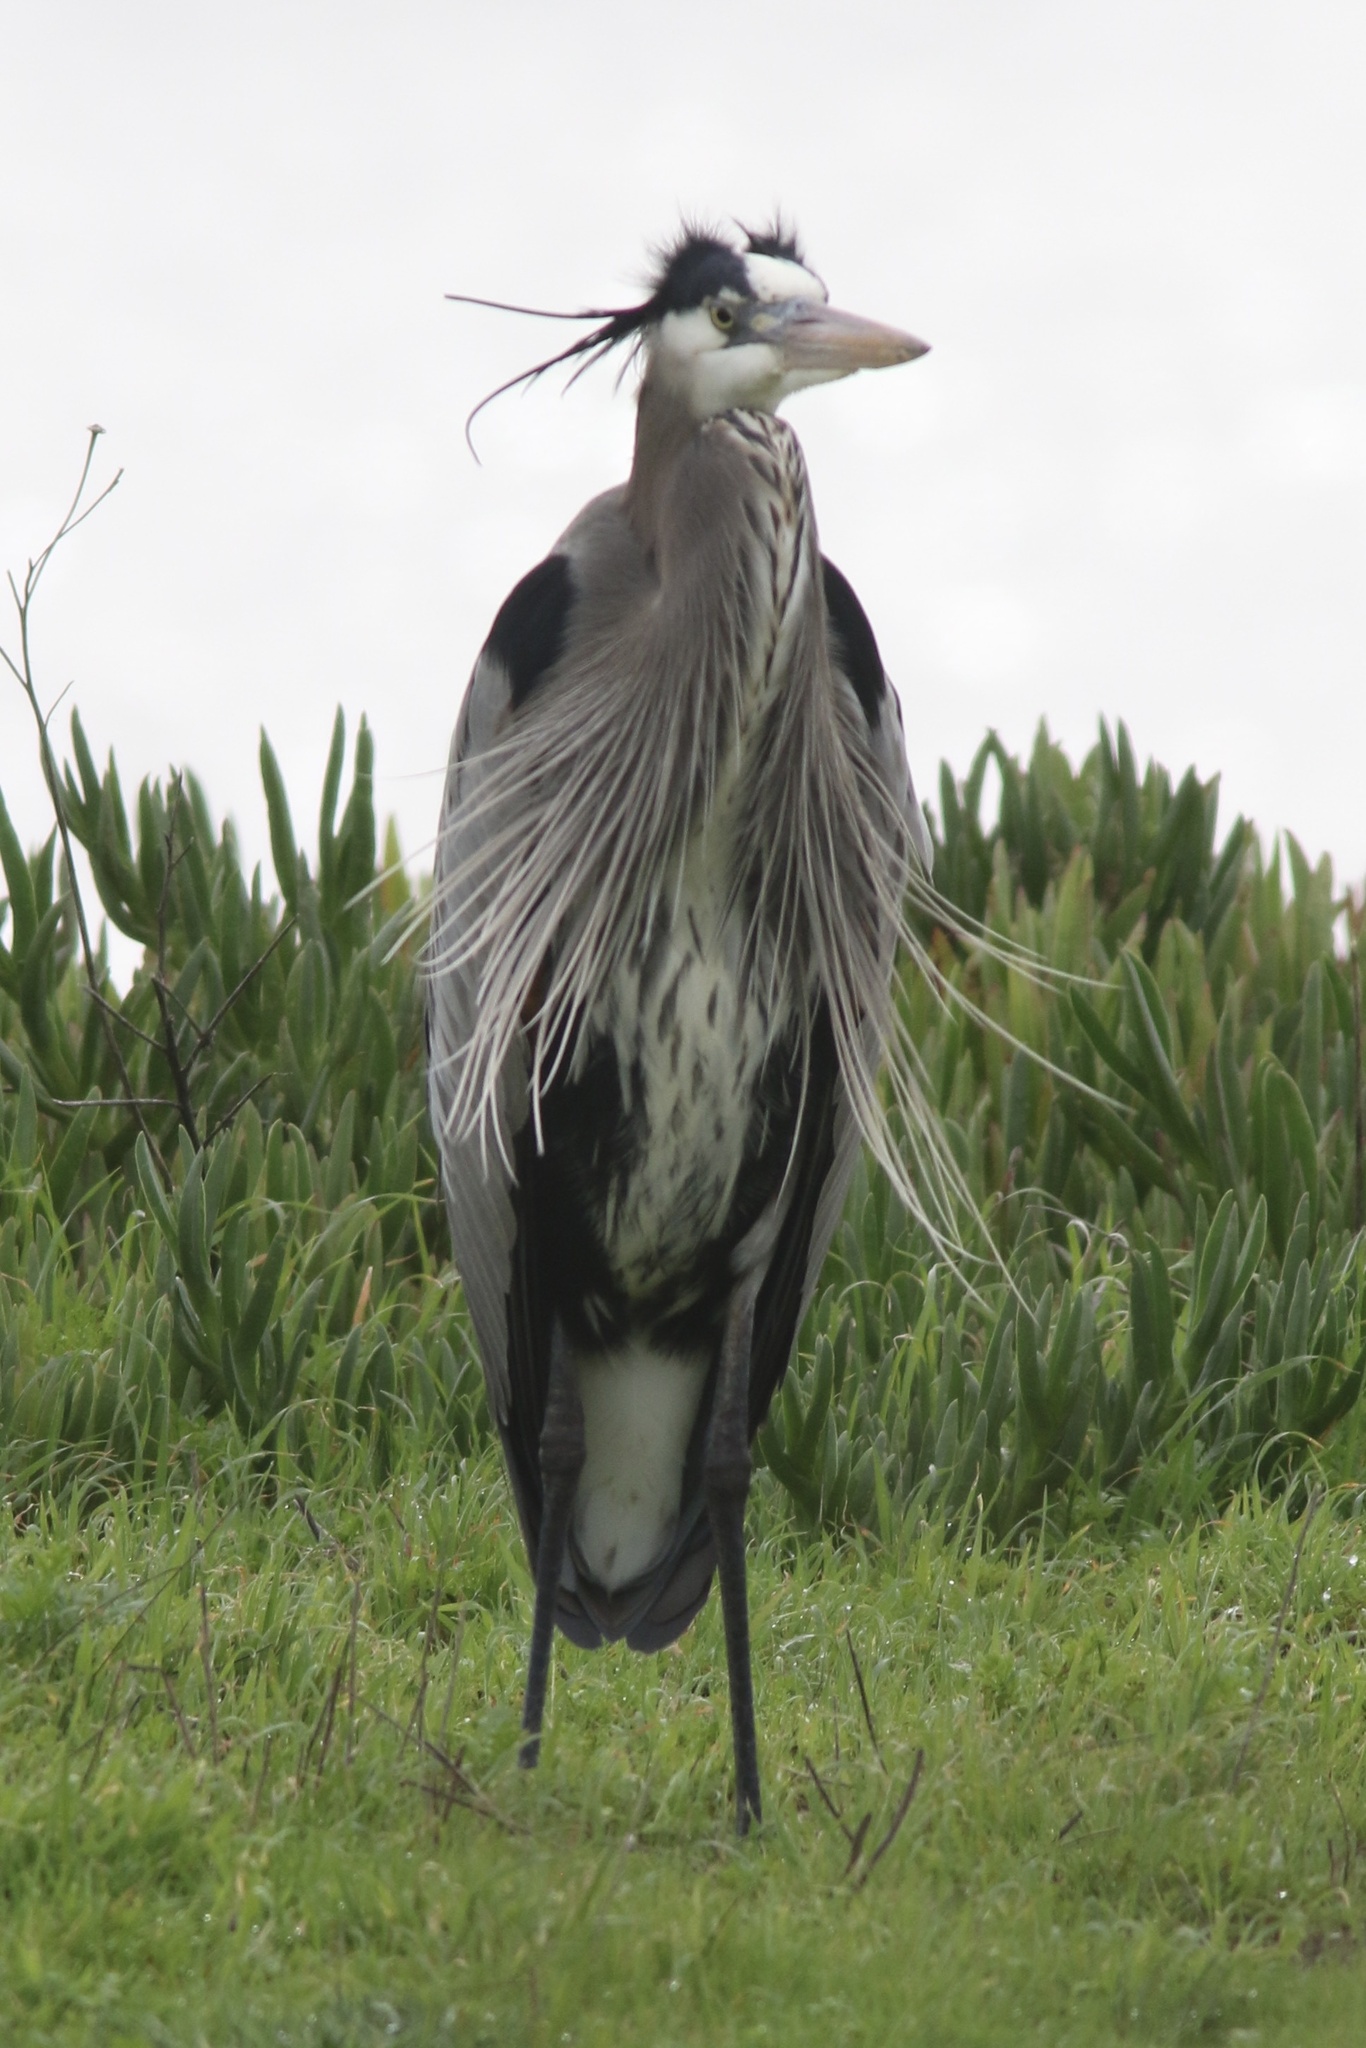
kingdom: Animalia
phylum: Chordata
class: Aves
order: Pelecaniformes
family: Ardeidae
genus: Ardea
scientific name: Ardea herodias
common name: Great blue heron
